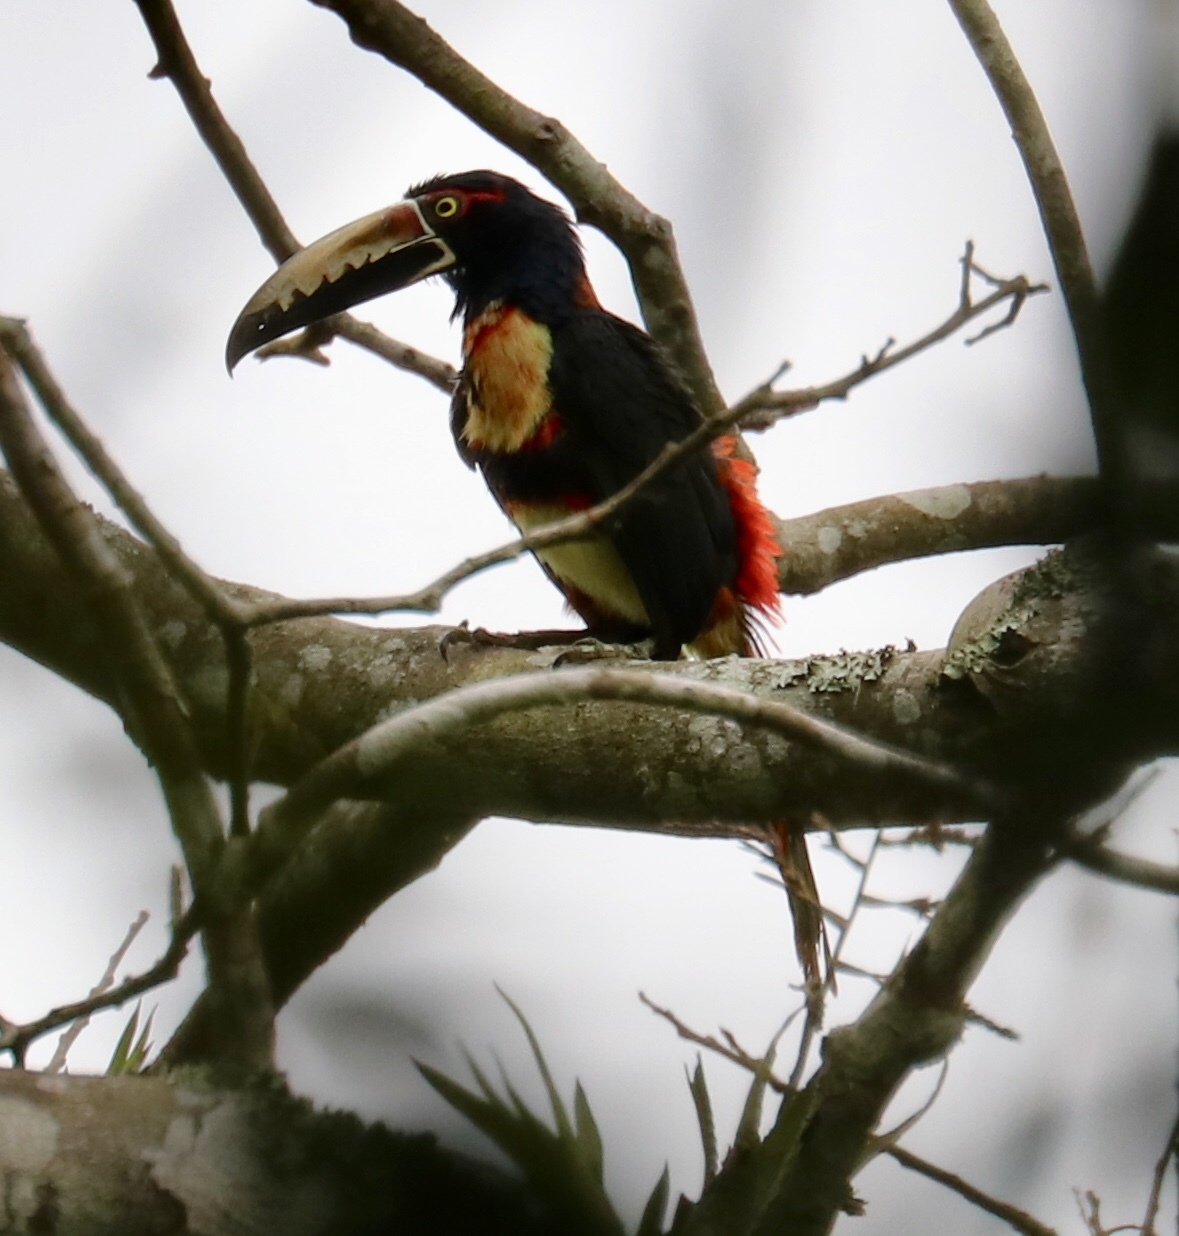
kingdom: Animalia
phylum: Chordata
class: Aves
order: Piciformes
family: Ramphastidae
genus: Pteroglossus
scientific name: Pteroglossus torquatus
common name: Collared aracari
